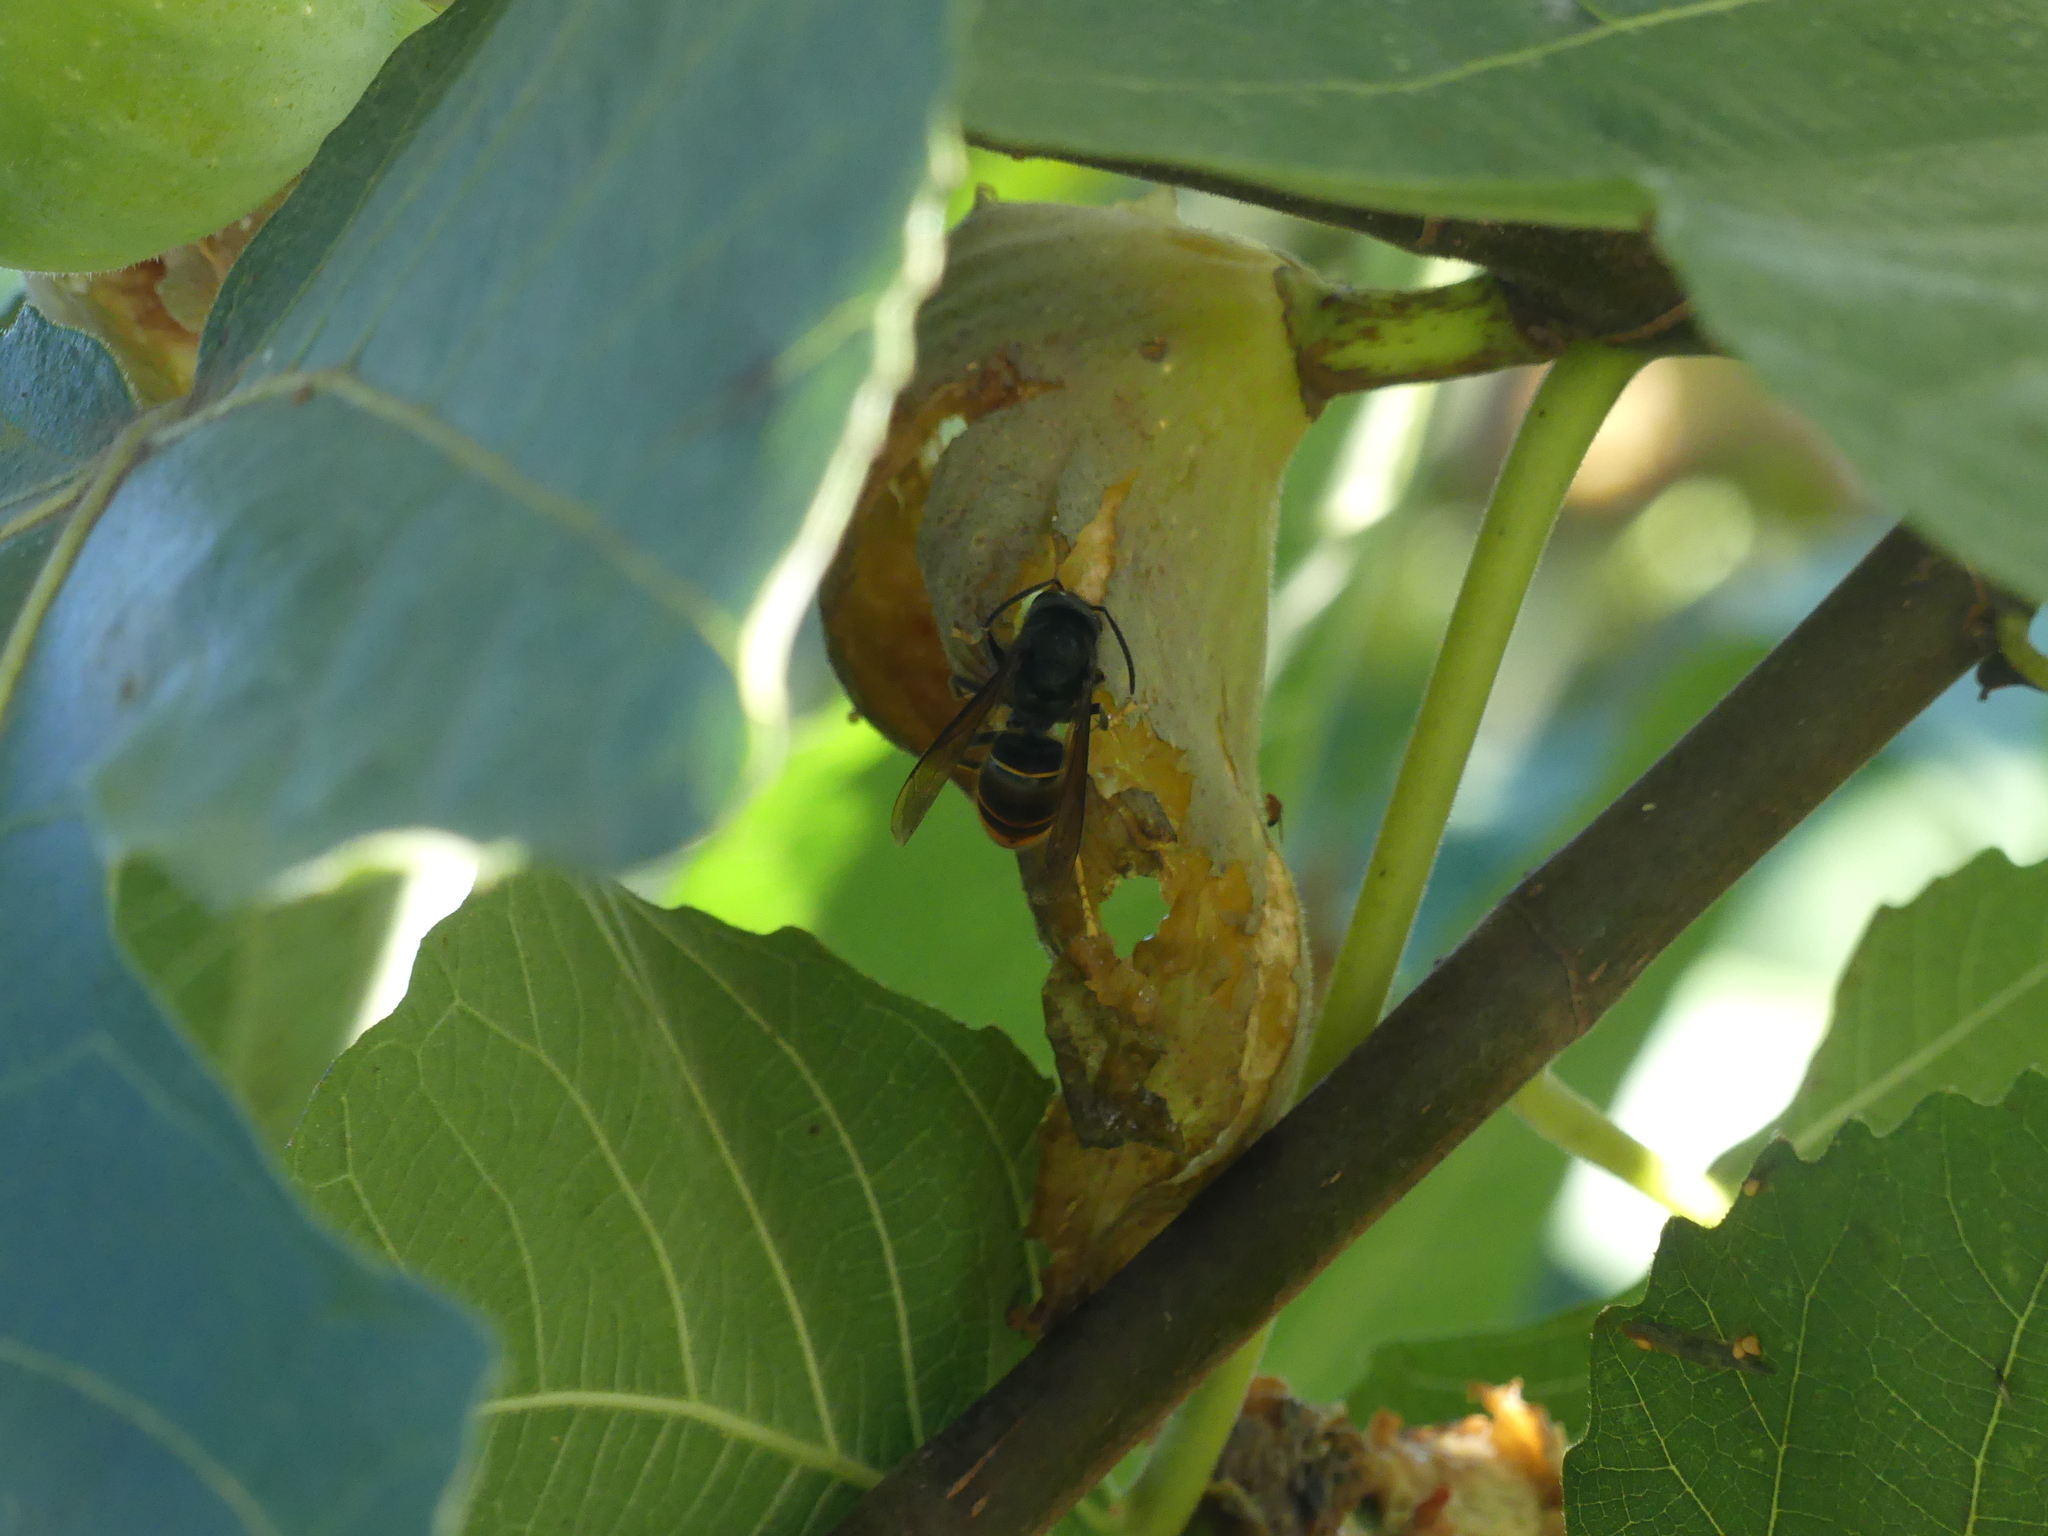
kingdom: Animalia
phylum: Arthropoda
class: Insecta
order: Hymenoptera
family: Vespidae
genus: Vespa
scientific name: Vespa velutina
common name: Asian hornet
